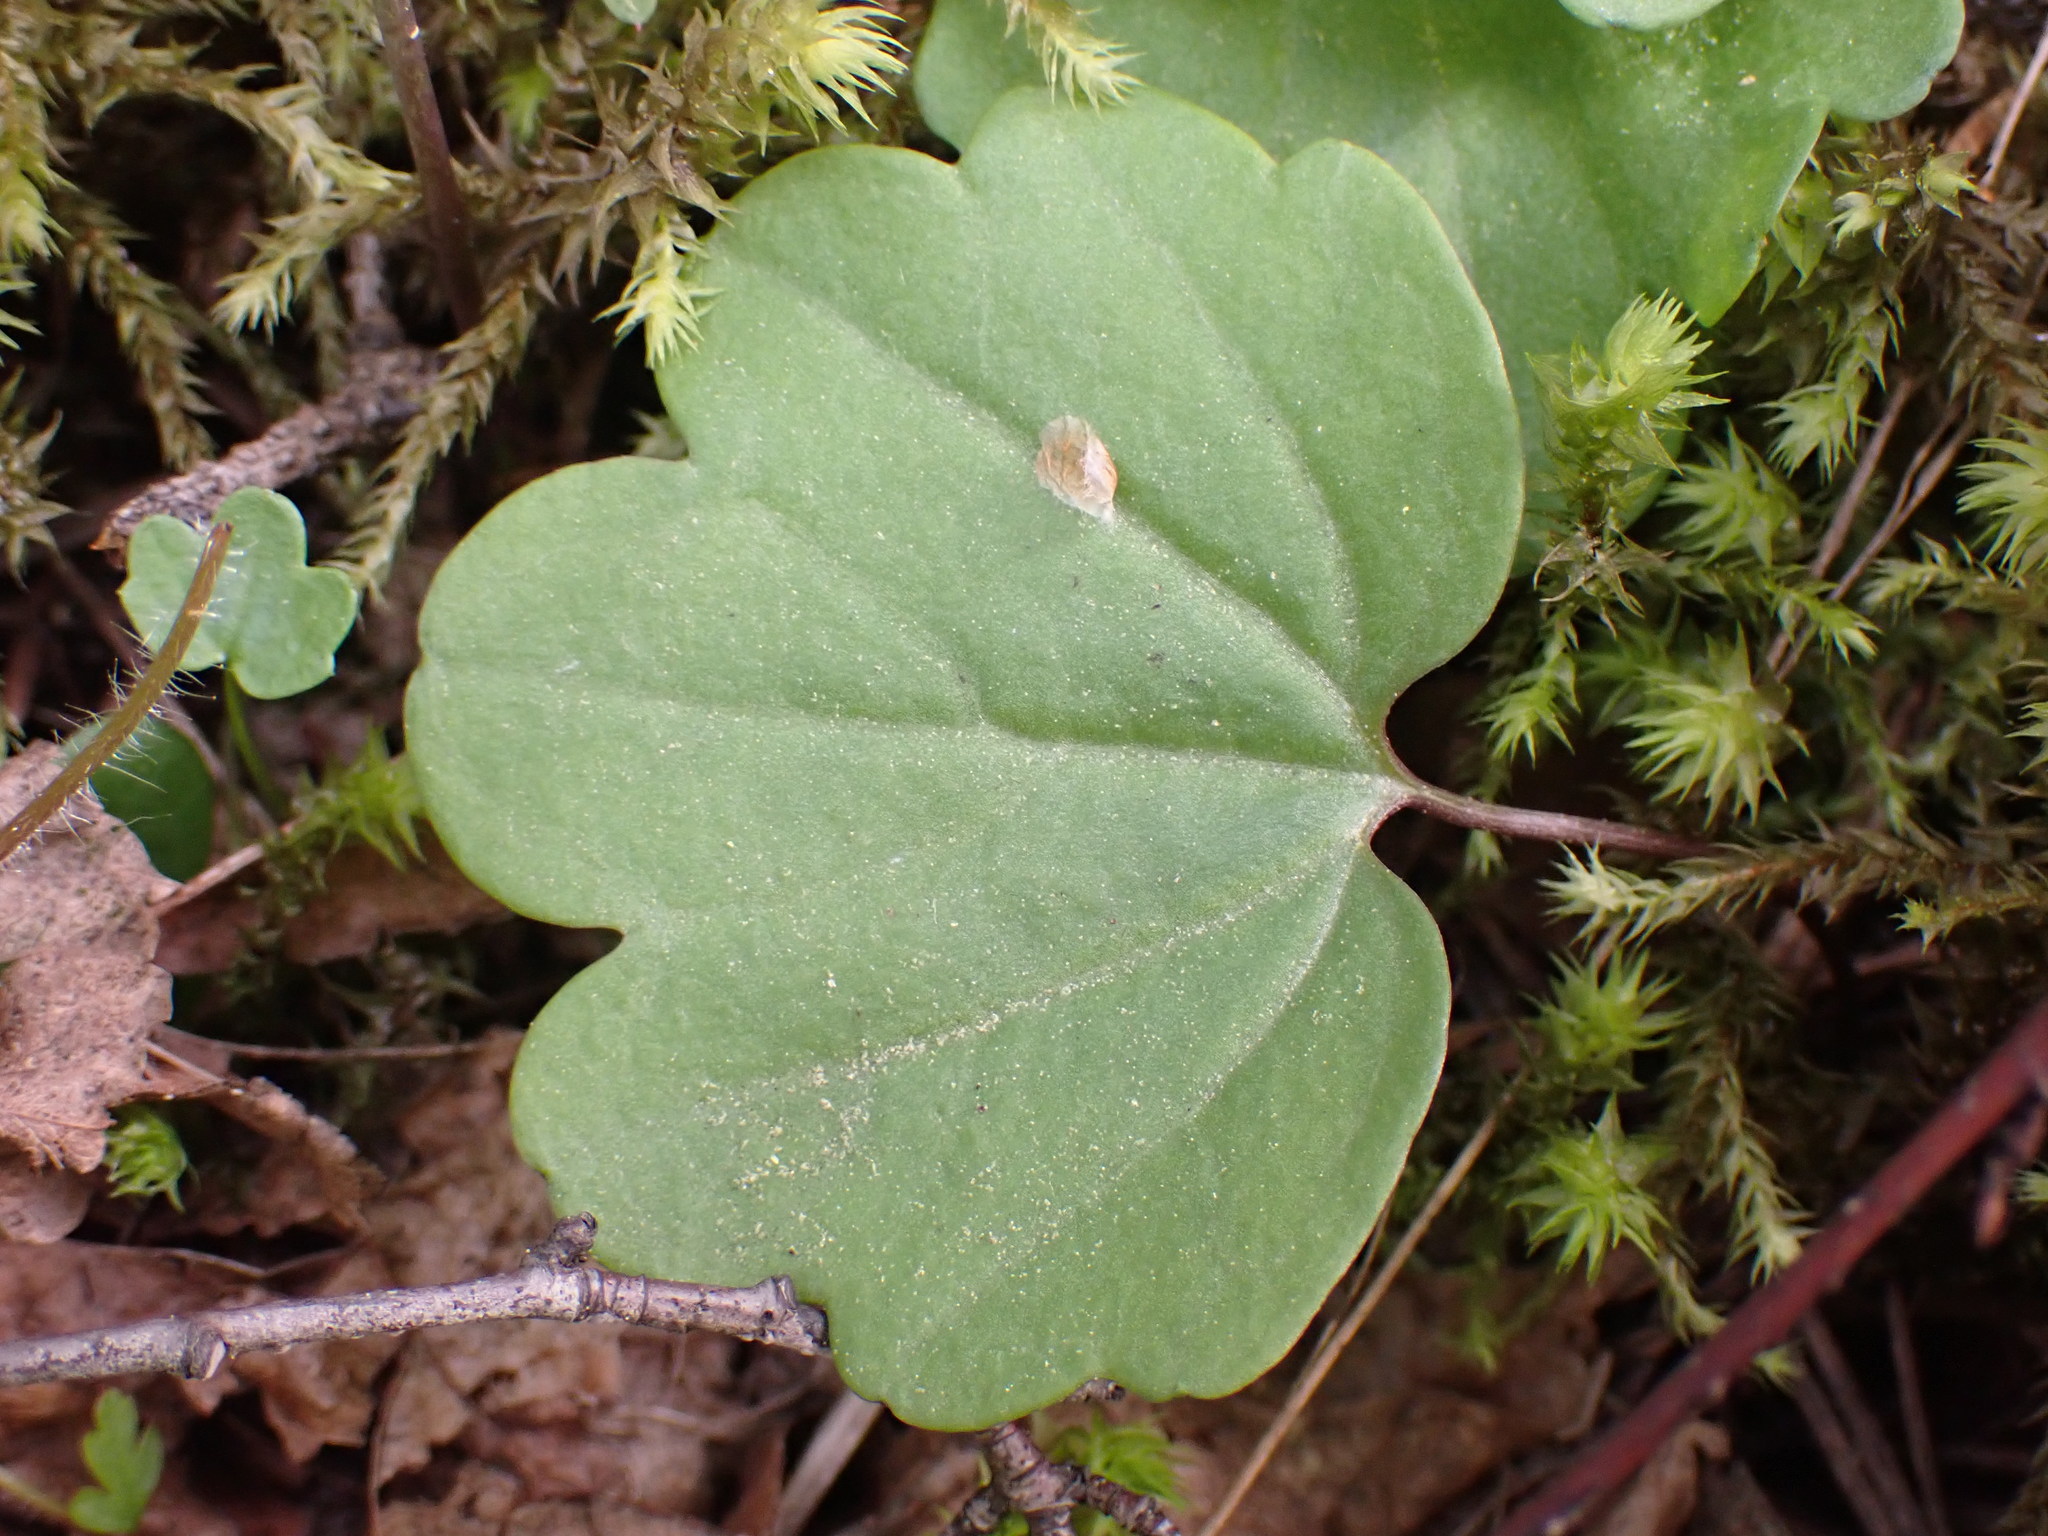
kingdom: Plantae
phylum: Tracheophyta
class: Magnoliopsida
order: Brassicales
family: Brassicaceae
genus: Cardamine
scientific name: Cardamine nuttallii
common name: Nuttall's toothwort
